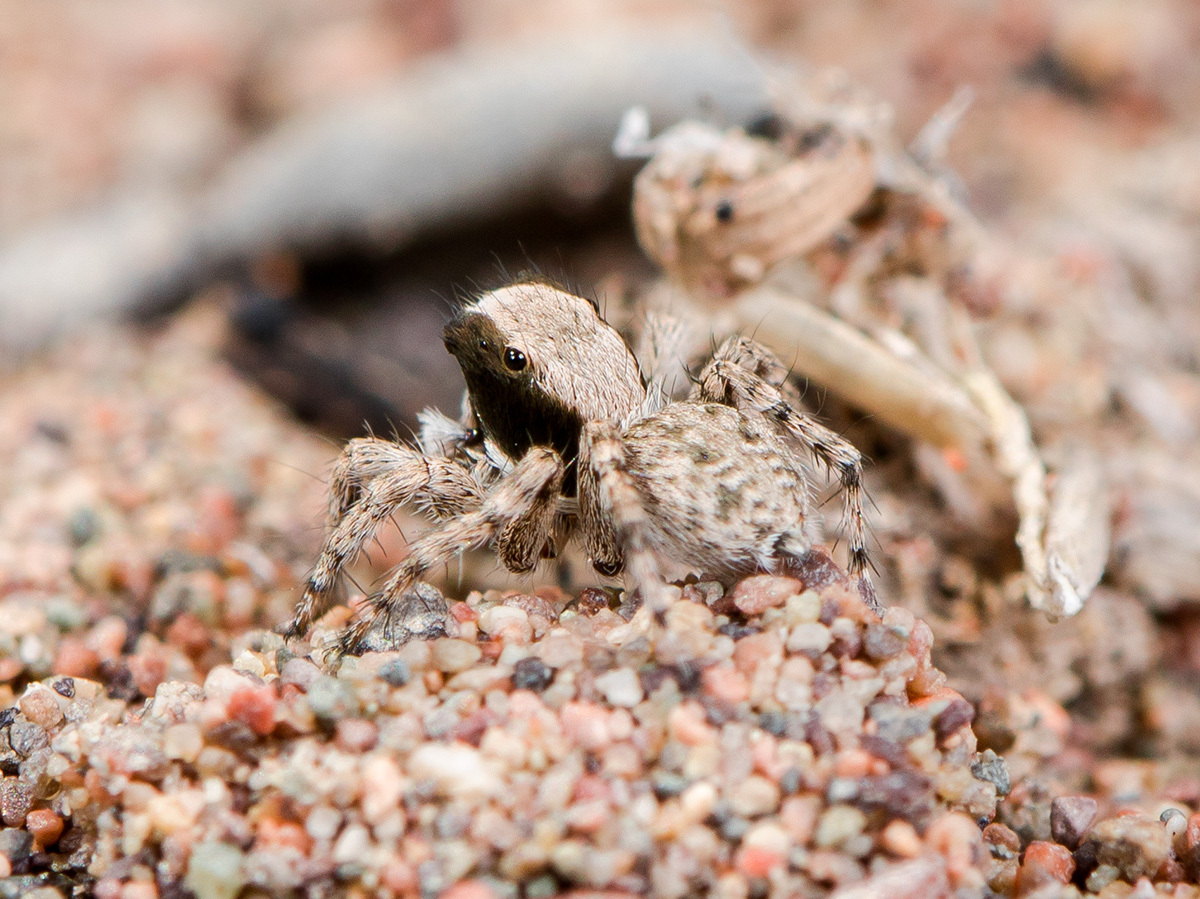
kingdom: Animalia
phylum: Arthropoda
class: Arachnida
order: Araneae
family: Salticidae
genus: Aelurillus
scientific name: Aelurillus andreevae
